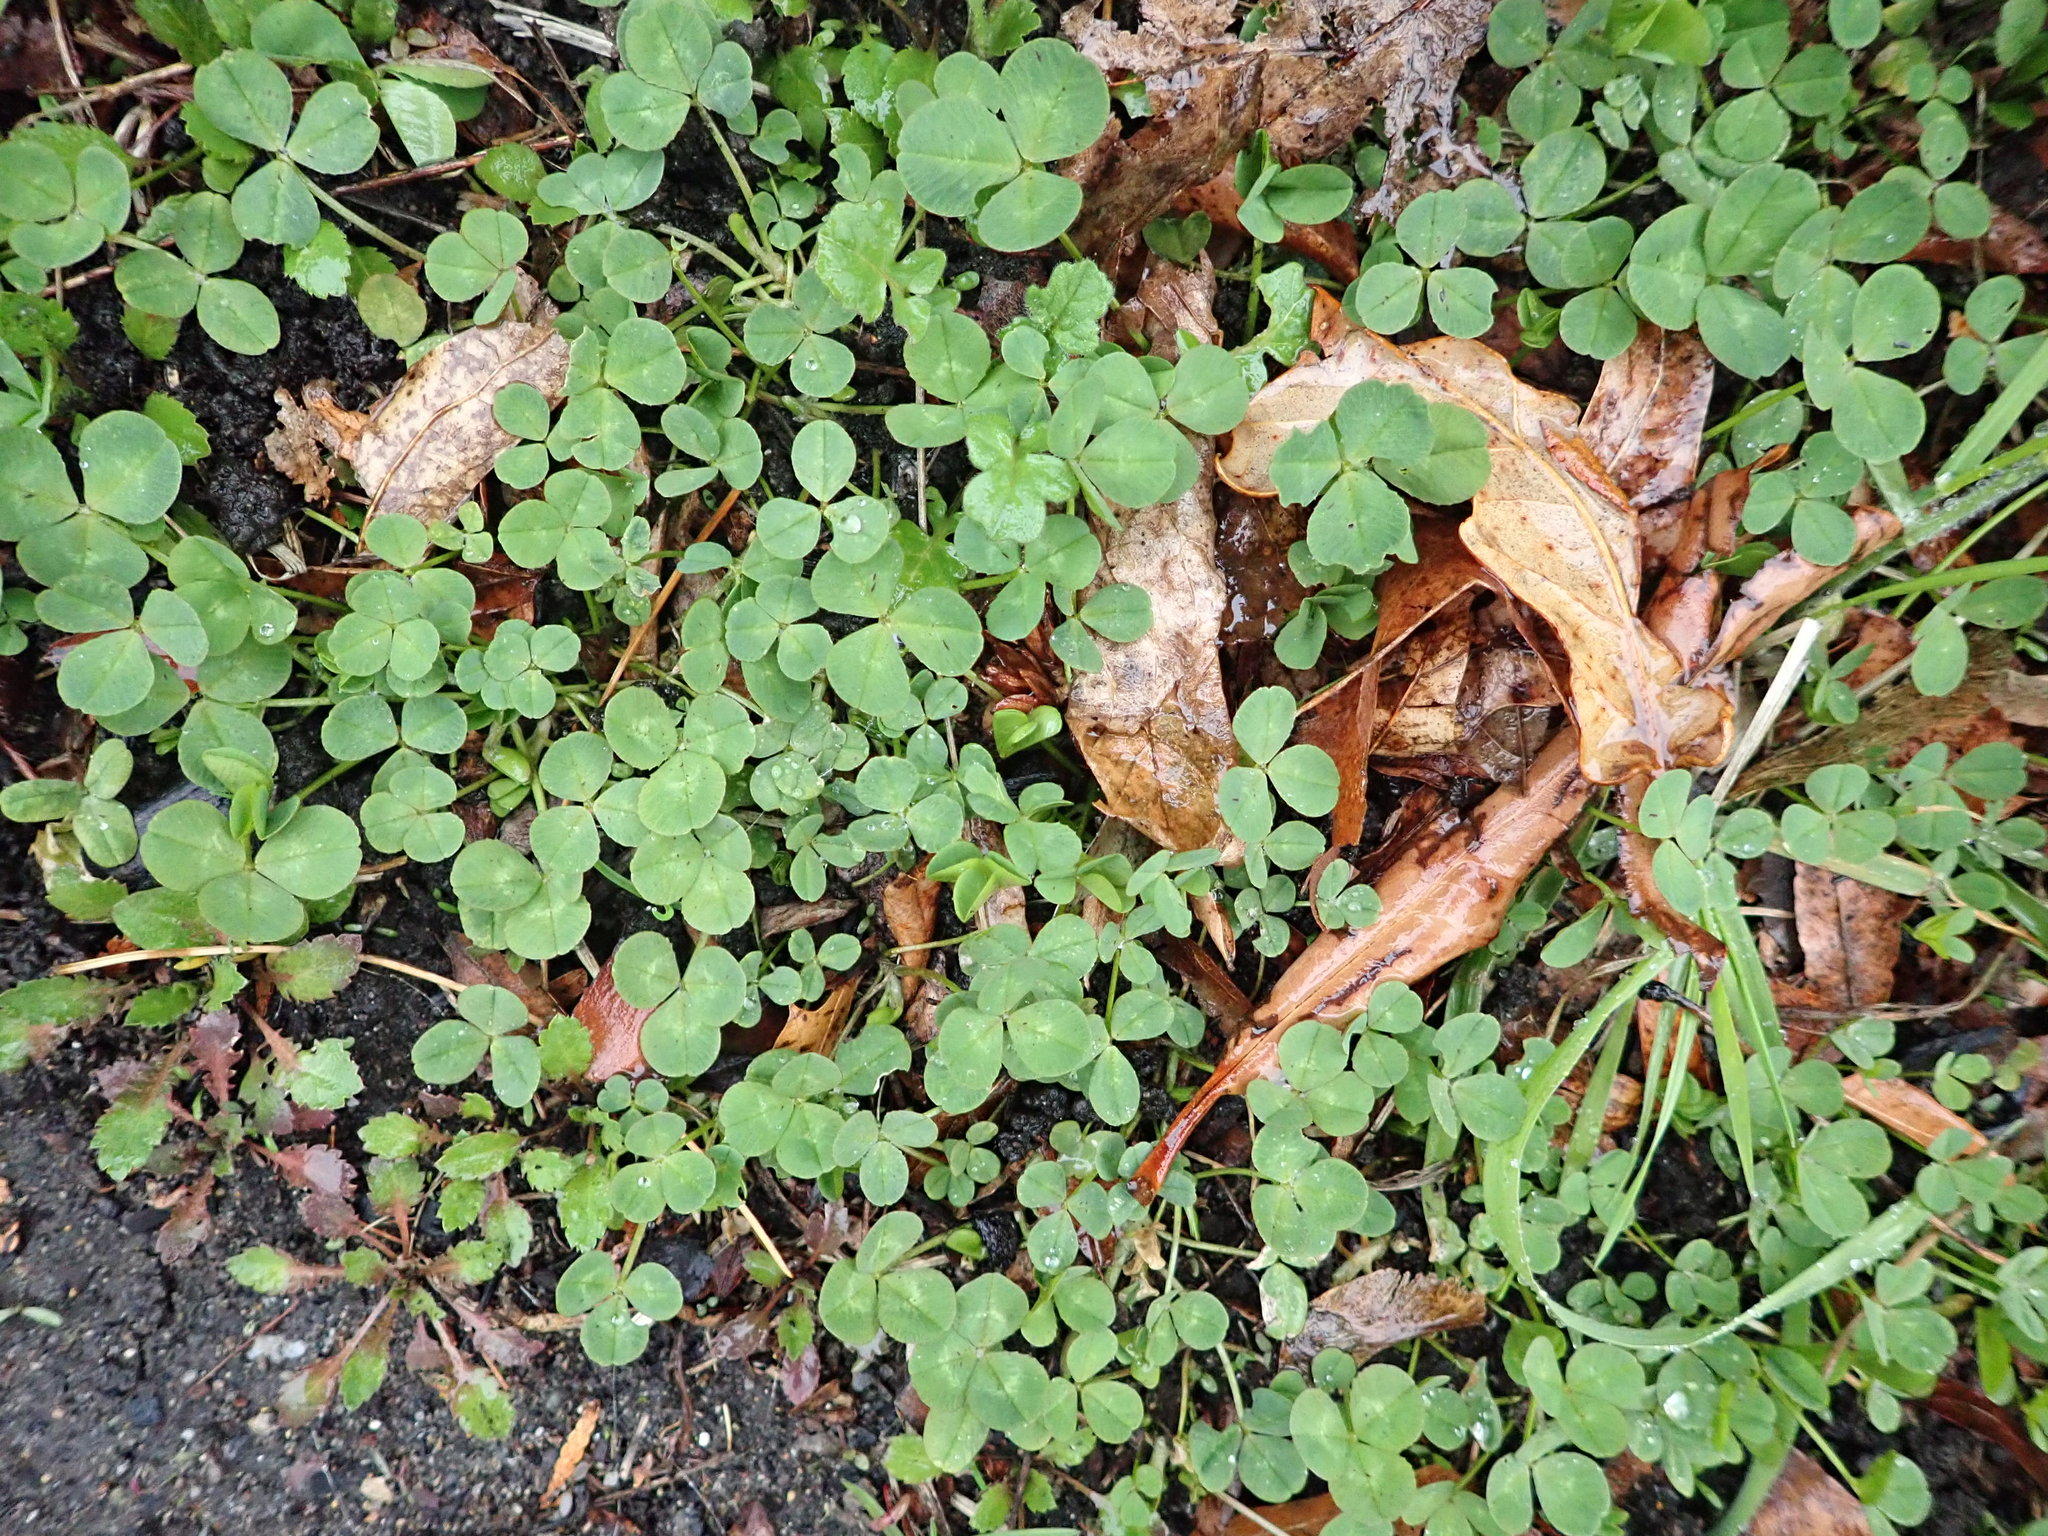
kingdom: Plantae
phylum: Tracheophyta
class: Magnoliopsida
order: Fabales
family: Fabaceae
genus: Trifolium
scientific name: Trifolium repens
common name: White clover
